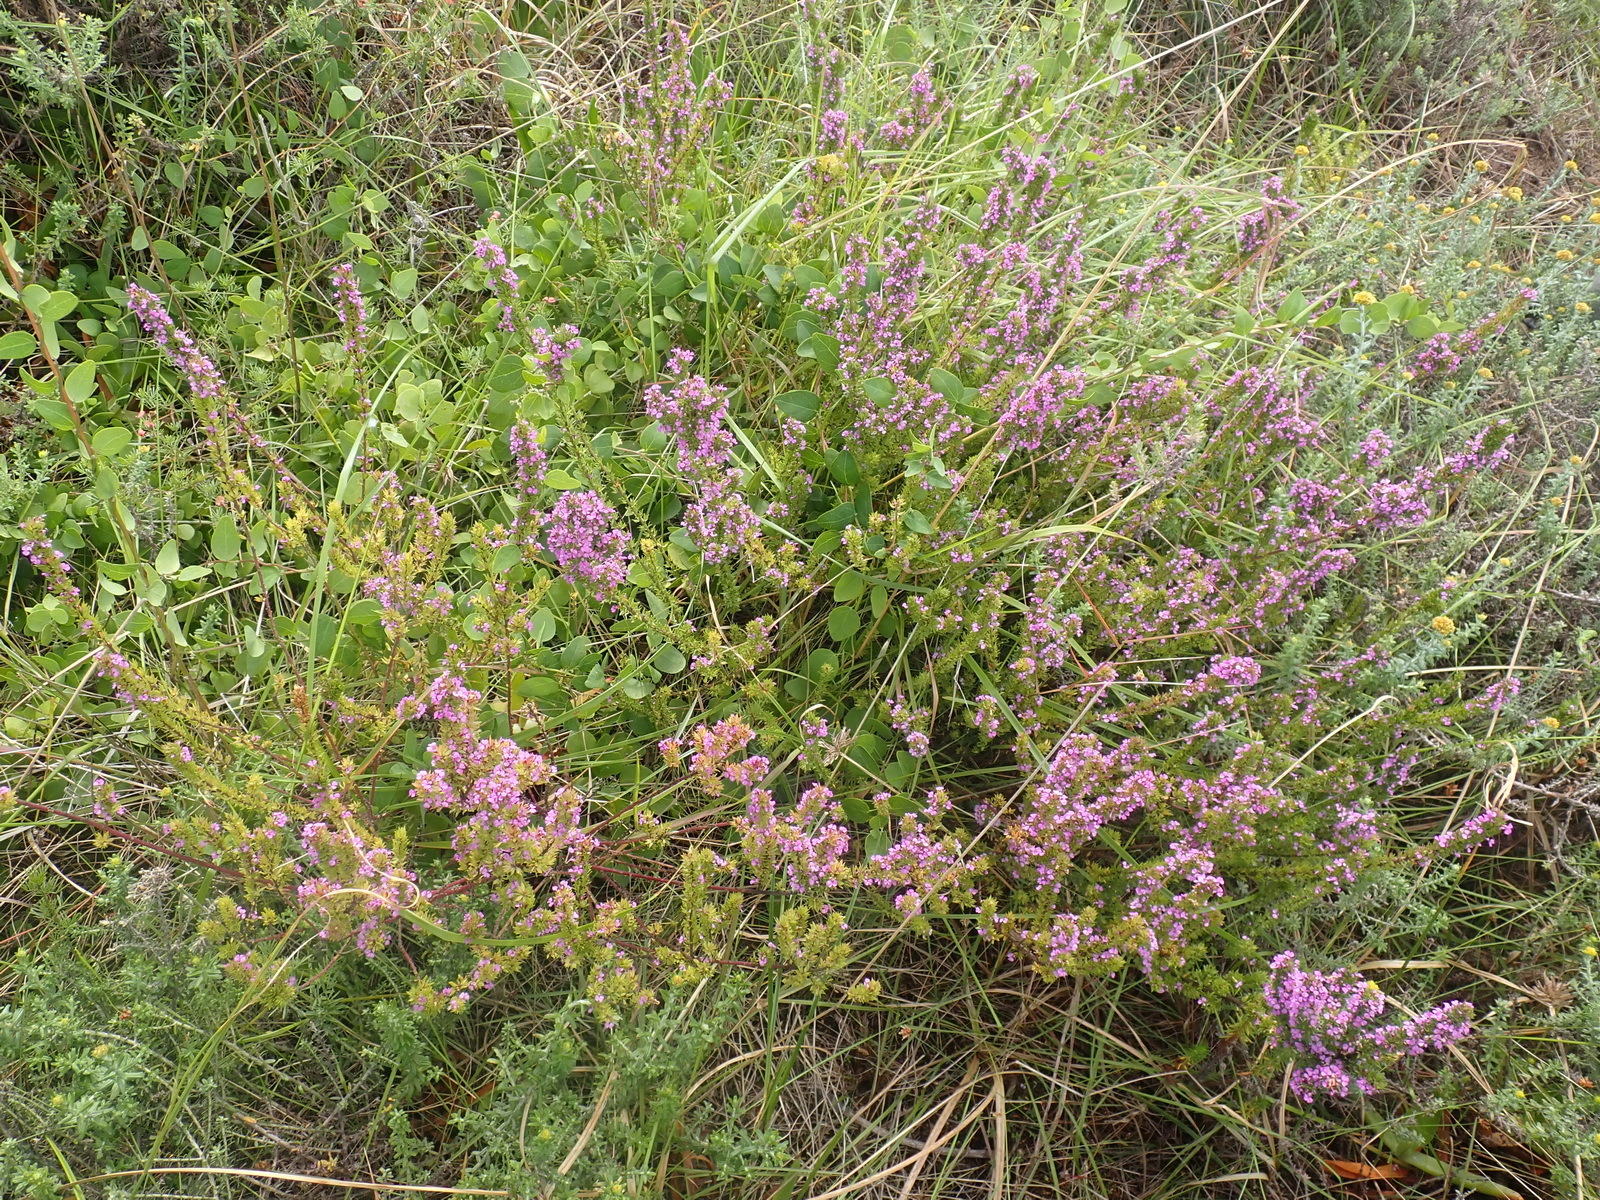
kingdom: Plantae
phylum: Tracheophyta
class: Magnoliopsida
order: Fabales
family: Polygalaceae
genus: Muraltia
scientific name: Muraltia alopecuroides
